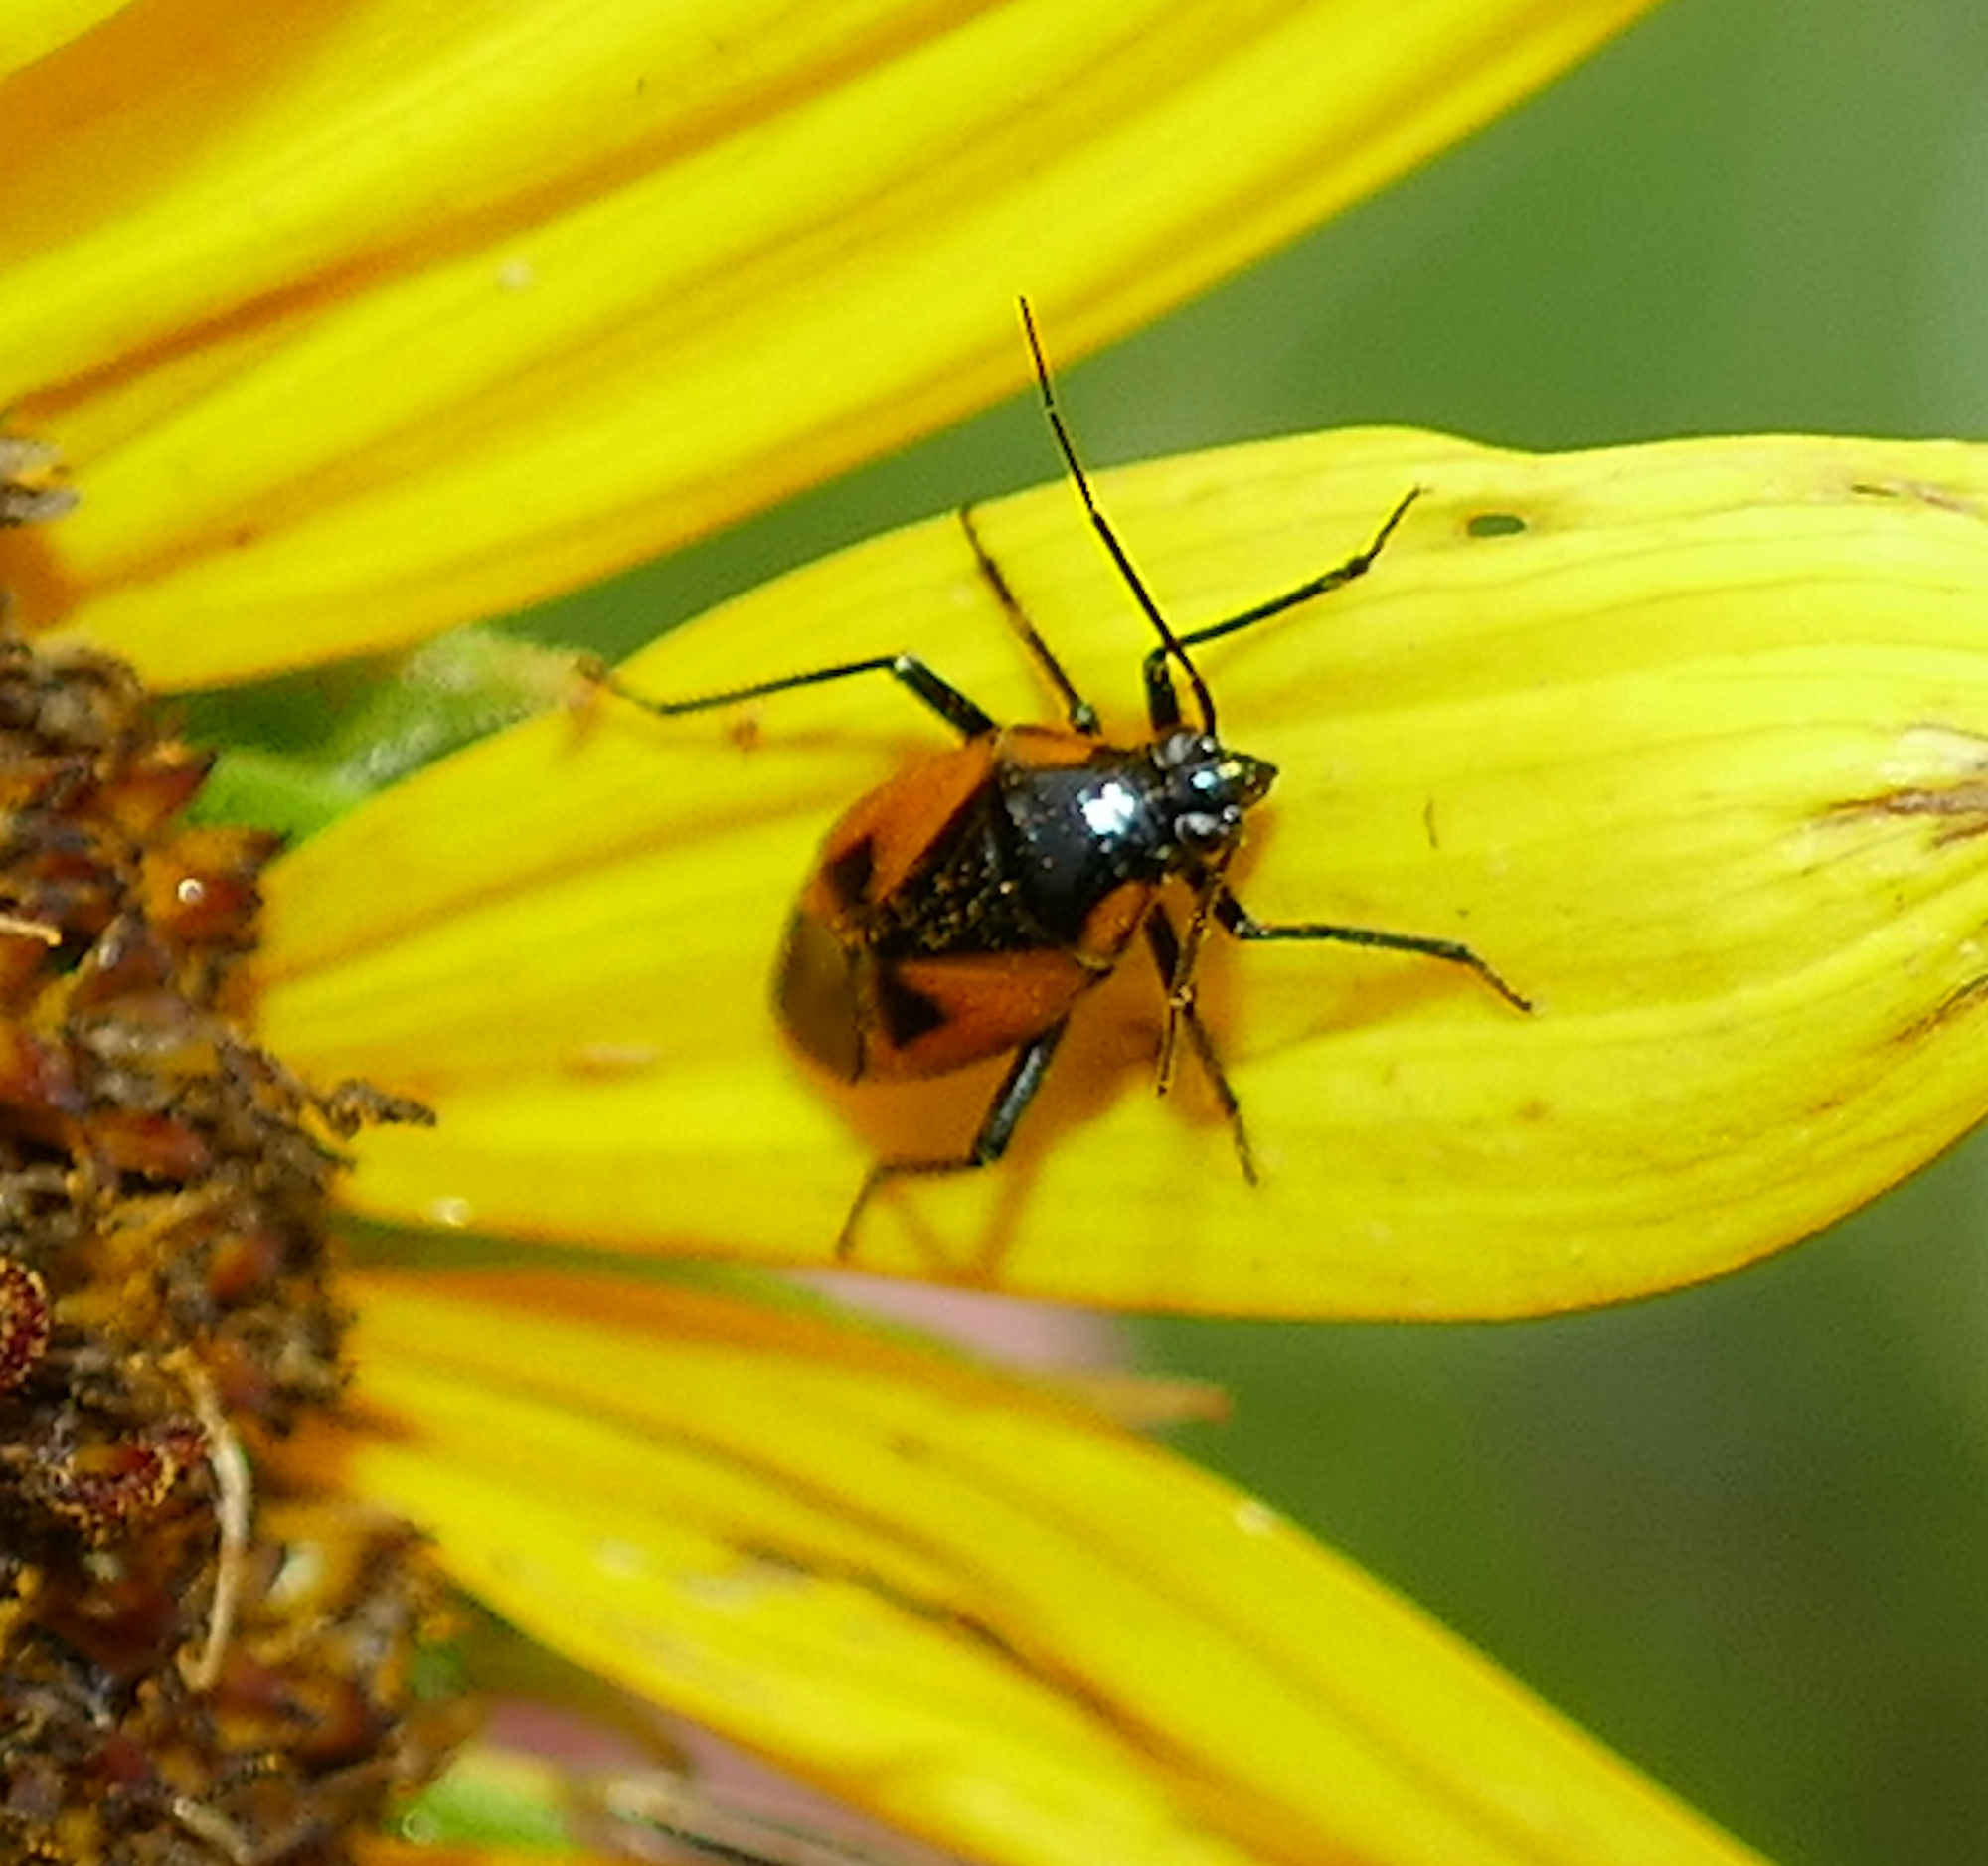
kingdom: Animalia
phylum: Arthropoda
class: Insecta
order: Hemiptera
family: Miridae
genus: Neocapsus
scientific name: Neocapsus fasciativentris
